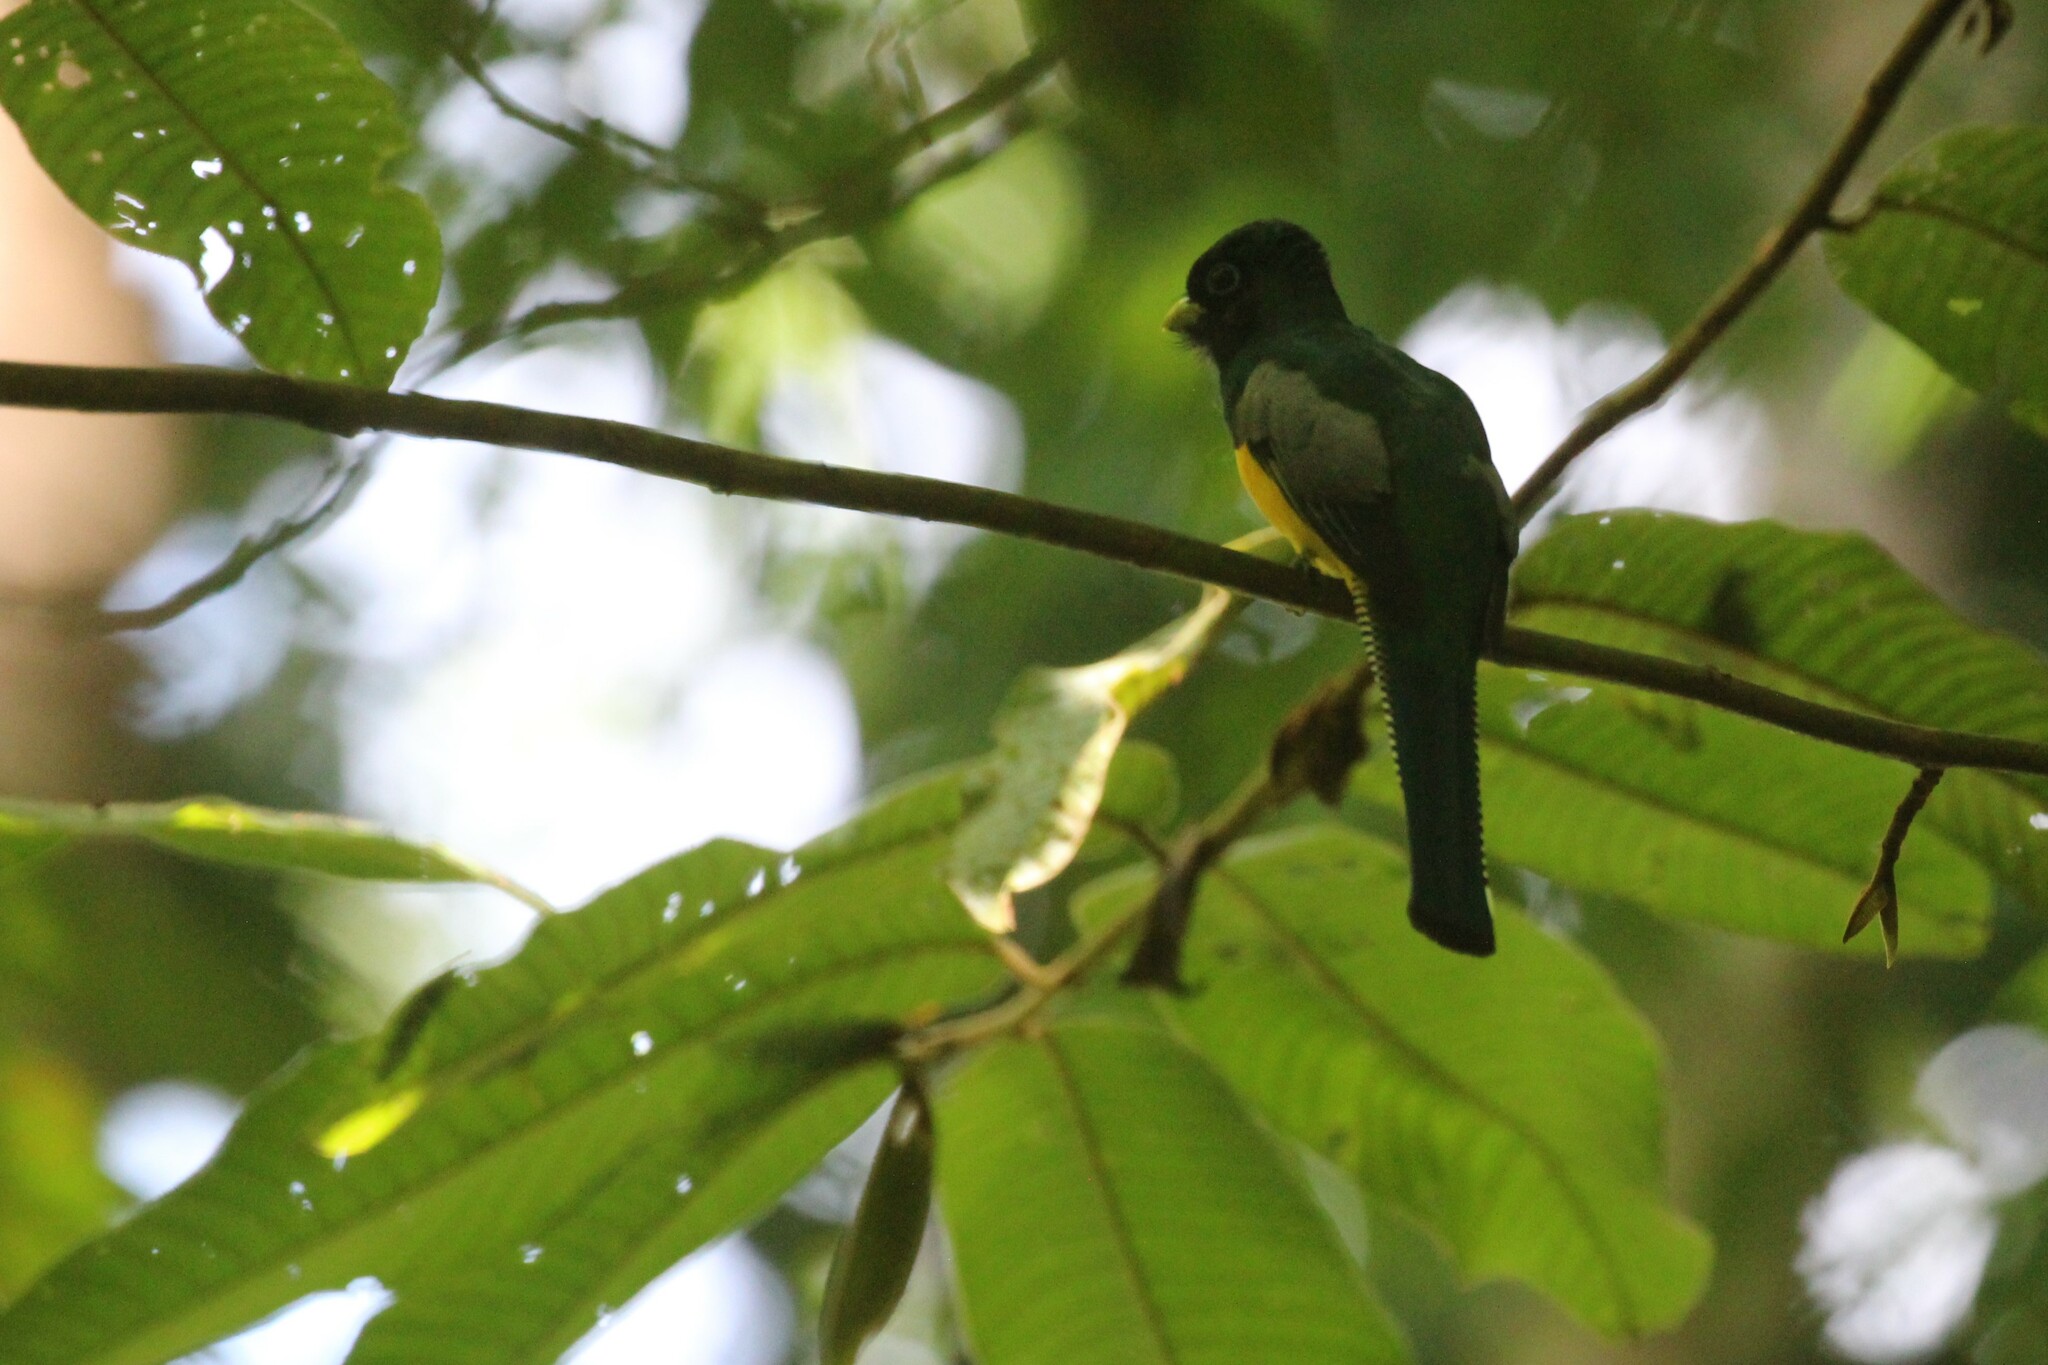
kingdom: Animalia
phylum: Chordata
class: Aves
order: Trogoniformes
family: Trogonidae
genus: Trogon
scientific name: Trogon rufus
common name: Black-throated trogon
